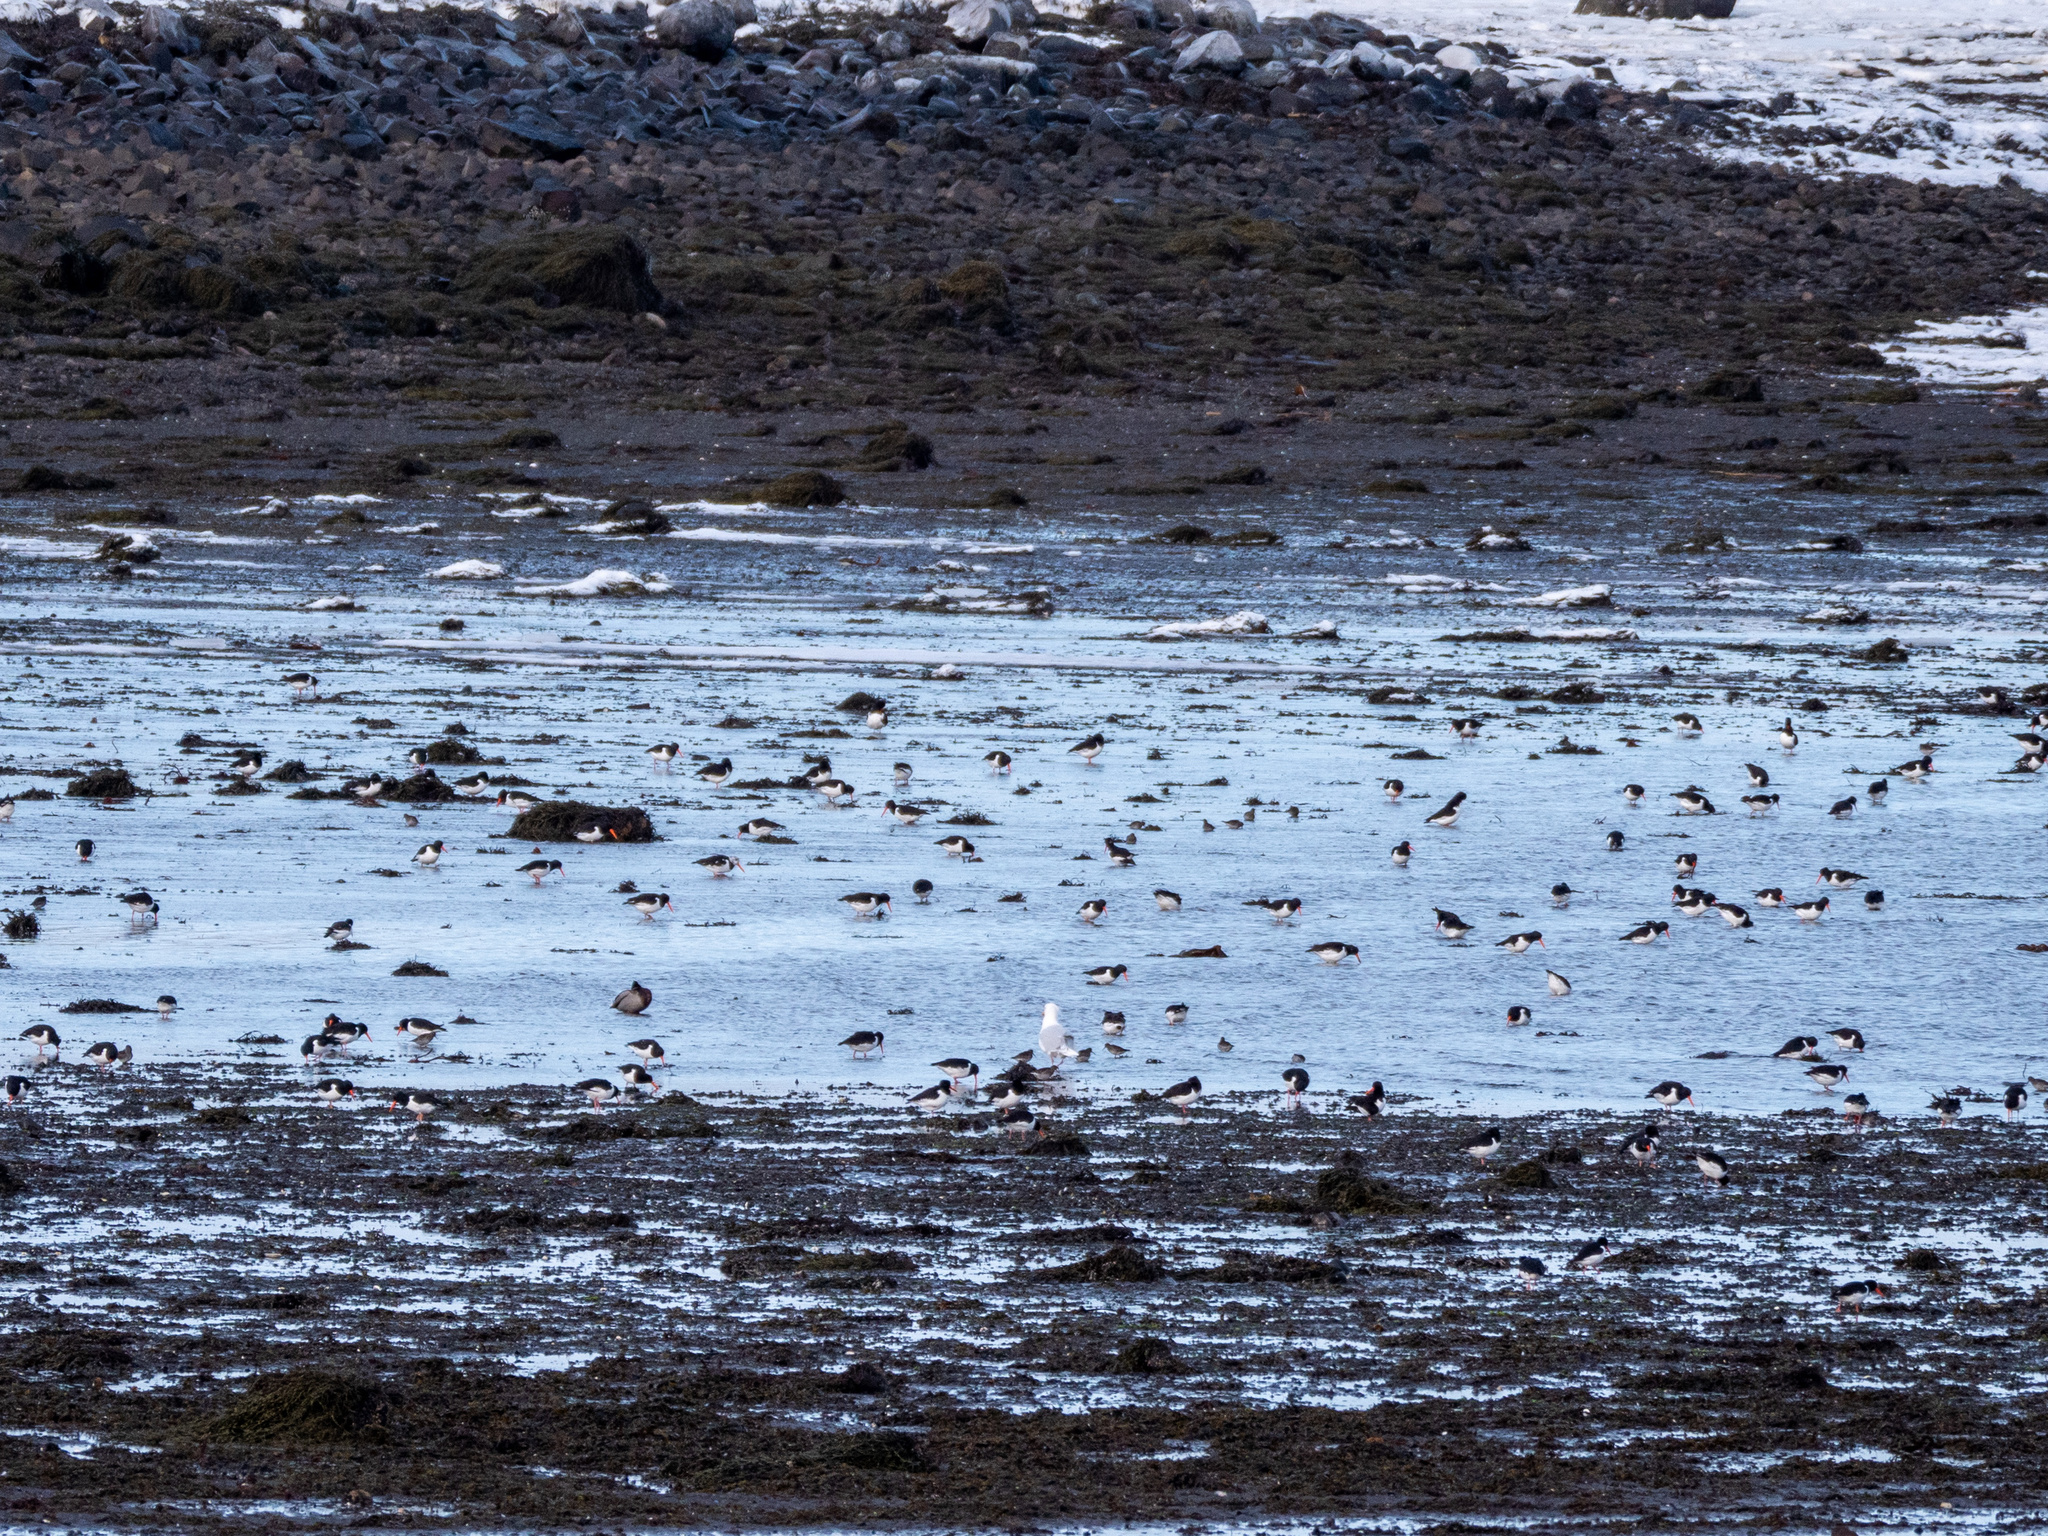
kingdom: Animalia
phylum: Chordata
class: Aves
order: Charadriiformes
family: Haematopodidae
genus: Haematopus
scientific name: Haematopus ostralegus
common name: Eurasian oystercatcher
